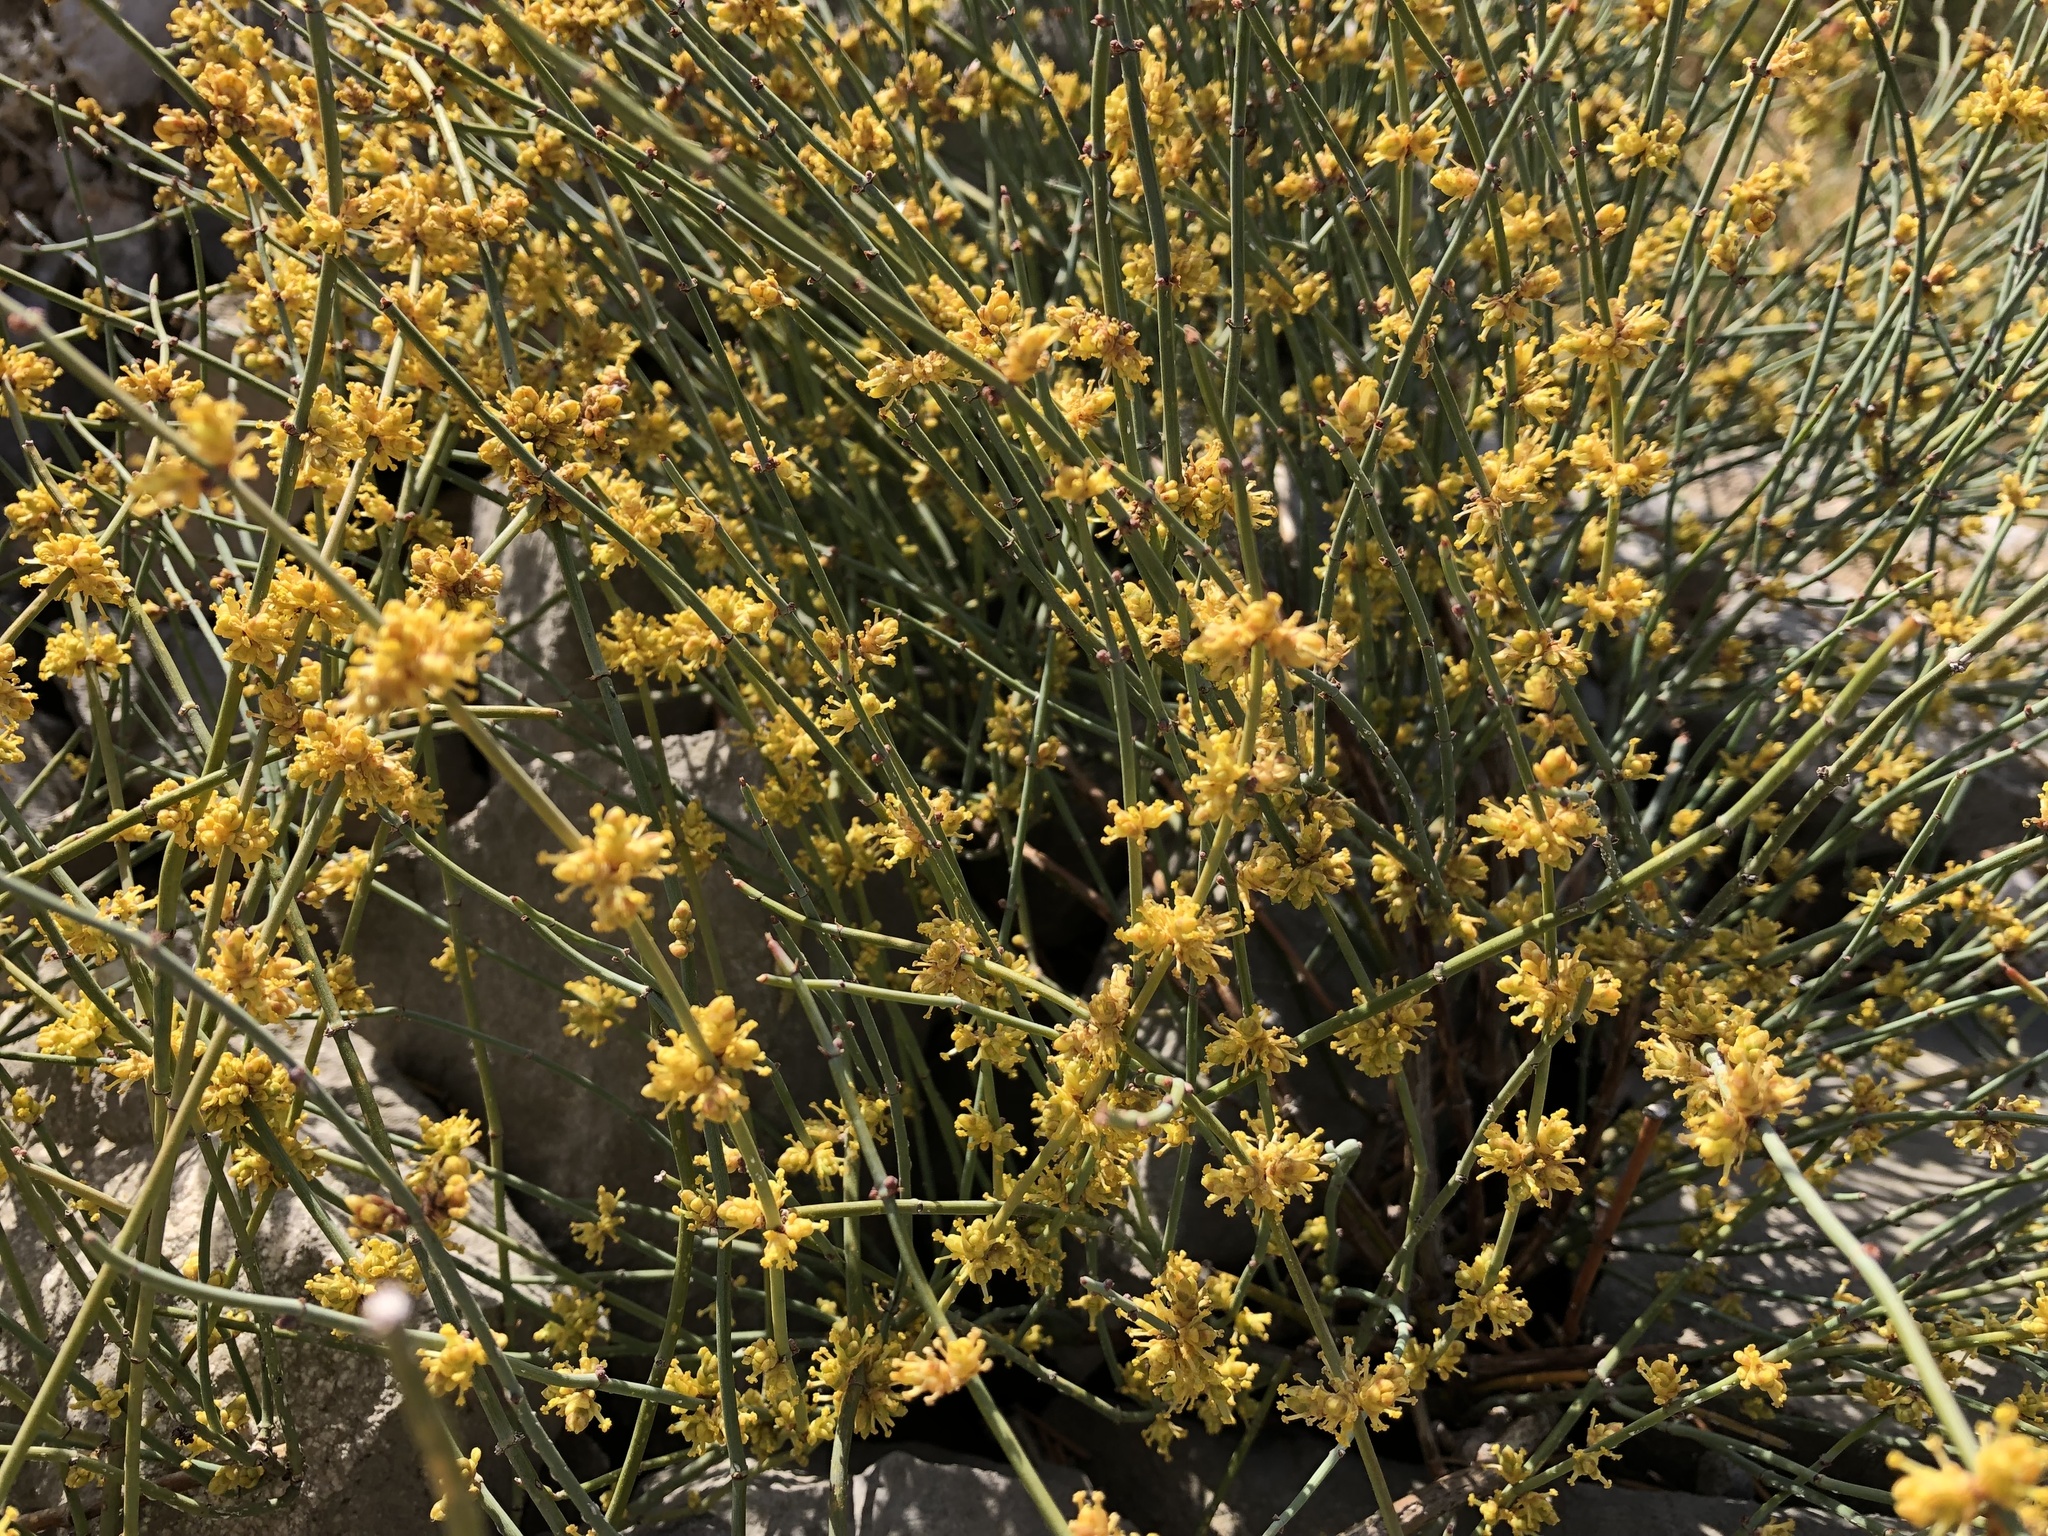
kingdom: Plantae
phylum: Tracheophyta
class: Gnetopsida
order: Ephedrales
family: Ephedraceae
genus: Ephedra
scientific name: Ephedra foeminea
